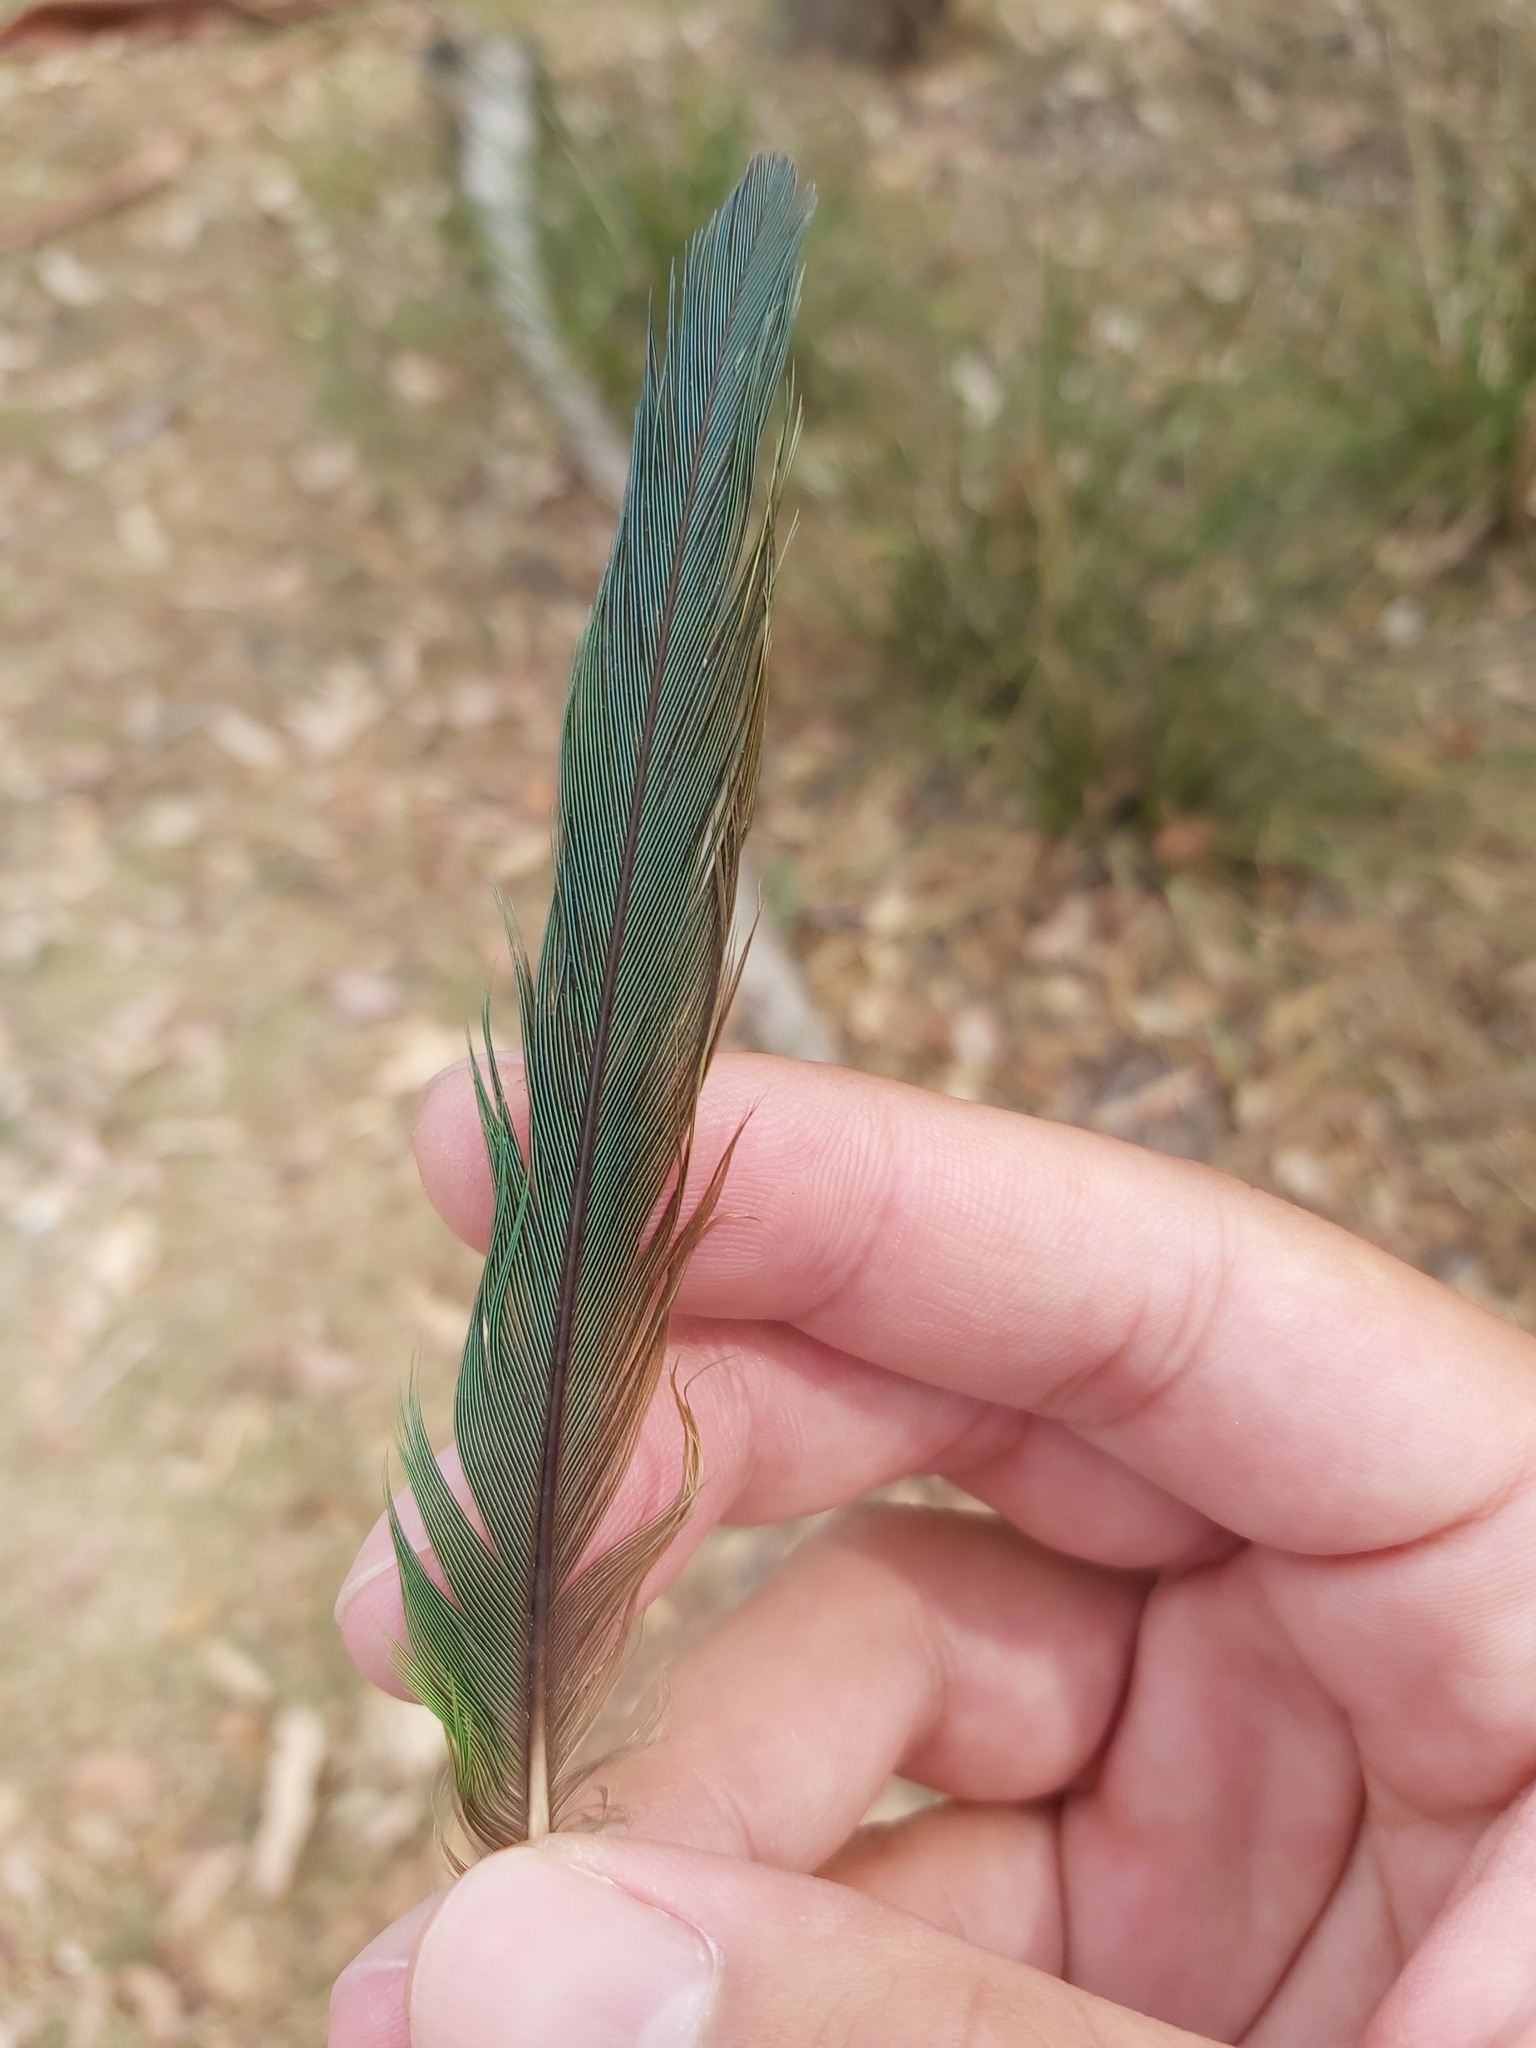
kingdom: Animalia
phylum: Chordata
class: Aves
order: Psittaciformes
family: Psittacidae
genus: Trichoglossus
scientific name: Trichoglossus haematodus
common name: Coconut lorikeet
